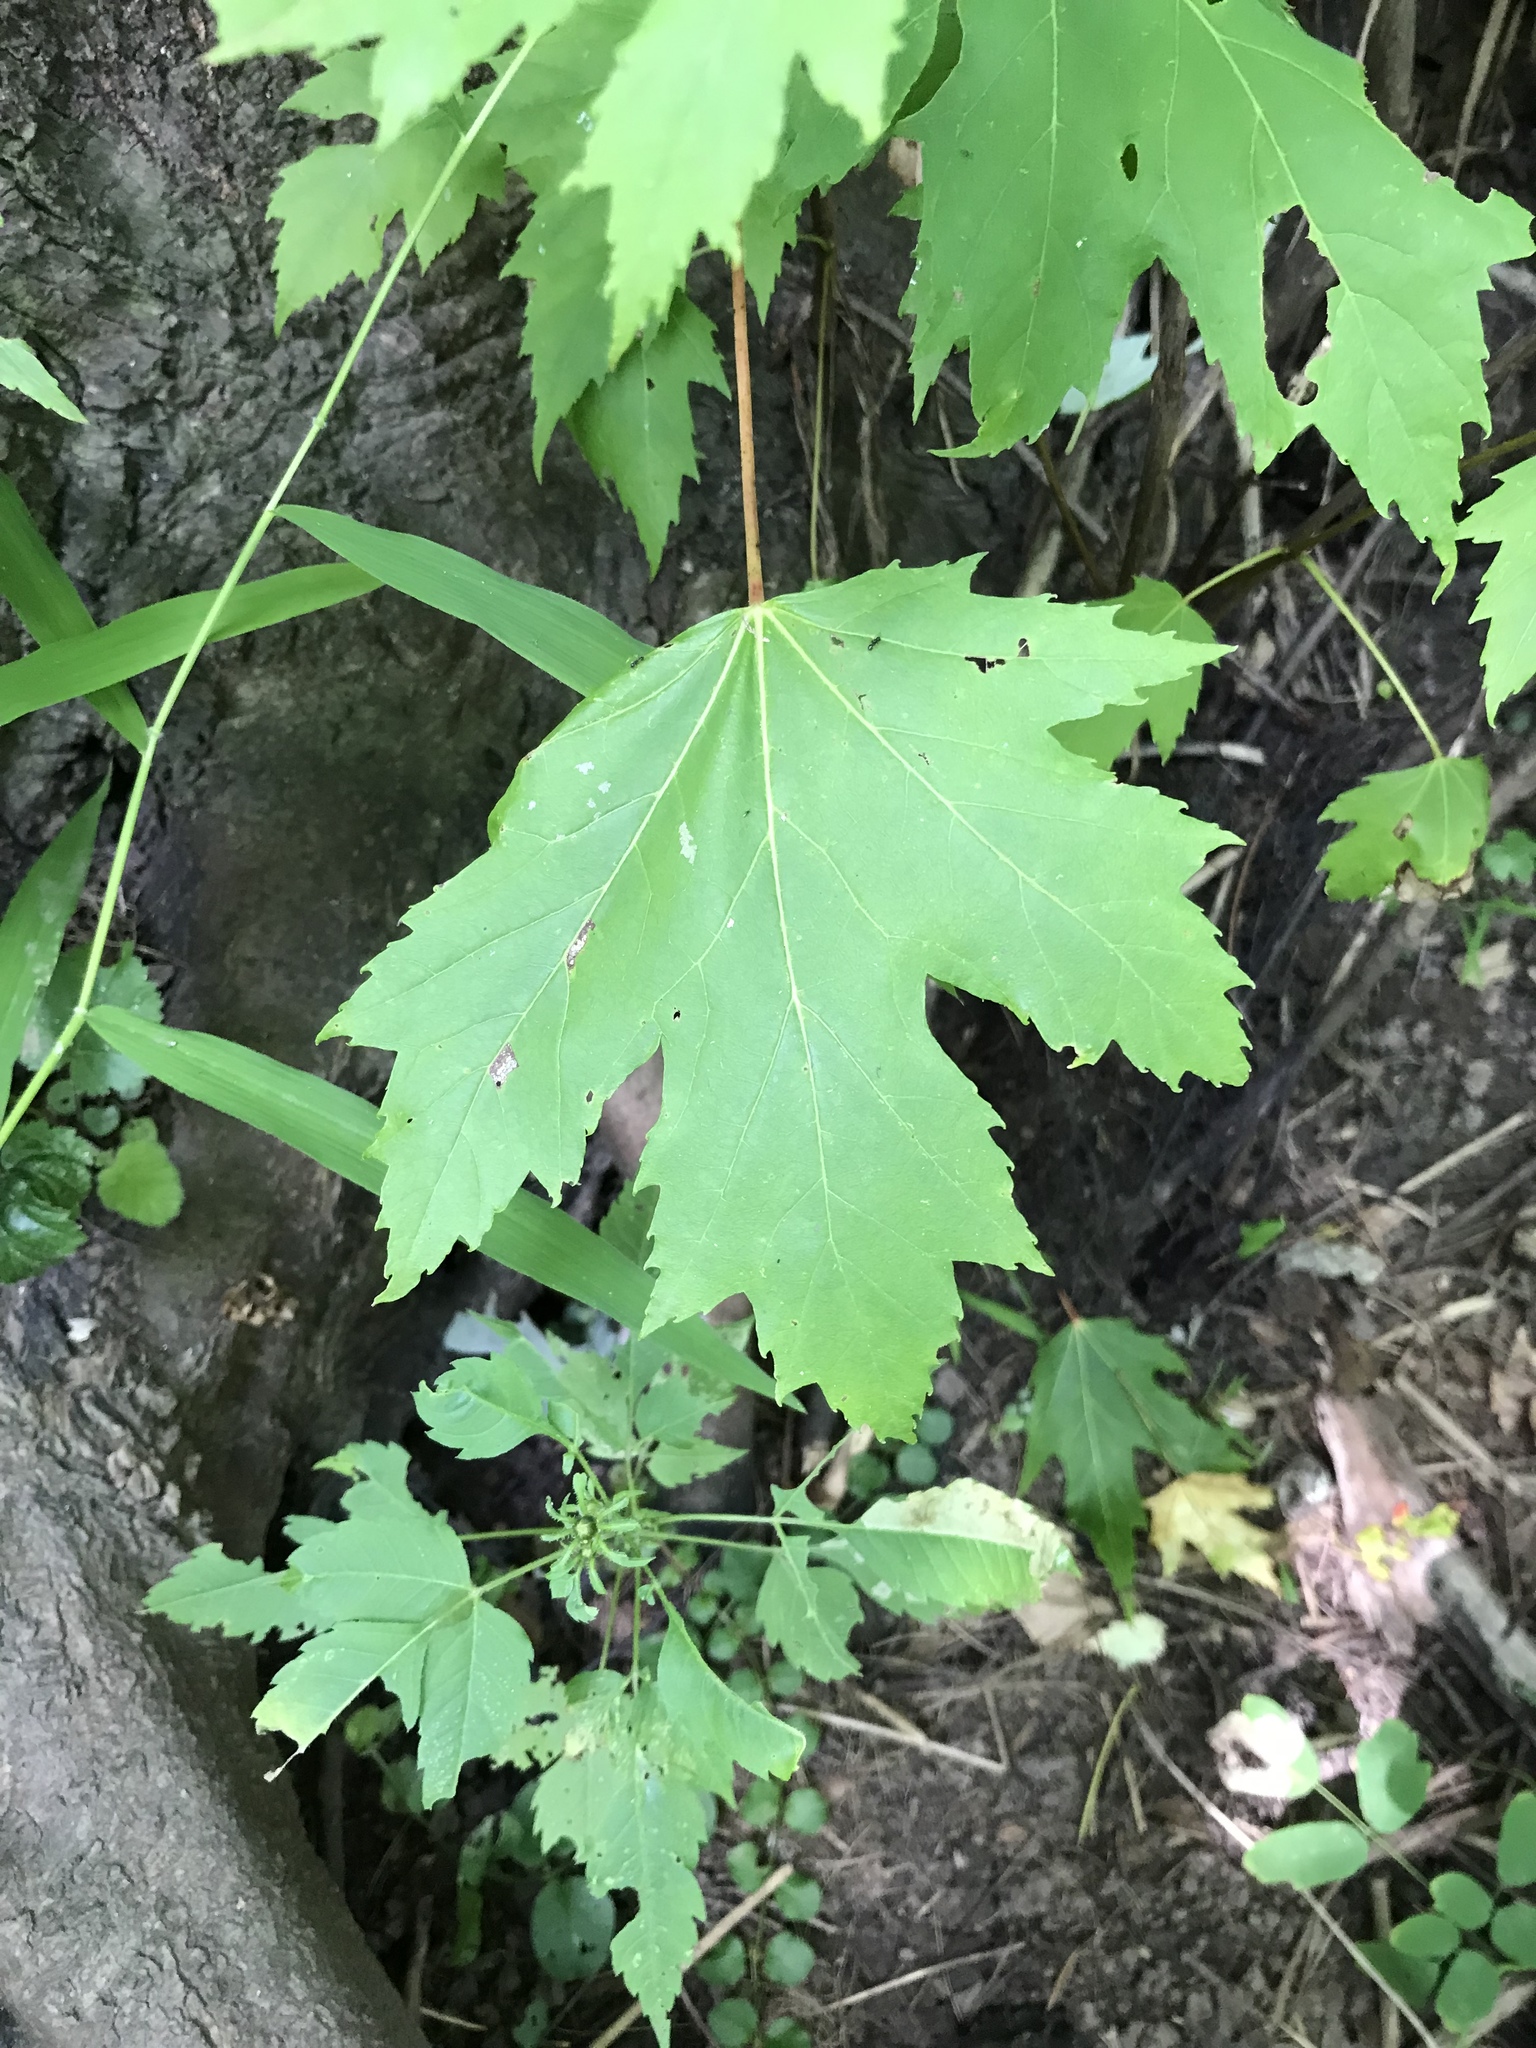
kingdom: Plantae
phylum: Tracheophyta
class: Magnoliopsida
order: Sapindales
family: Sapindaceae
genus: Acer
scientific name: Acer freemanii
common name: Freeman maple
